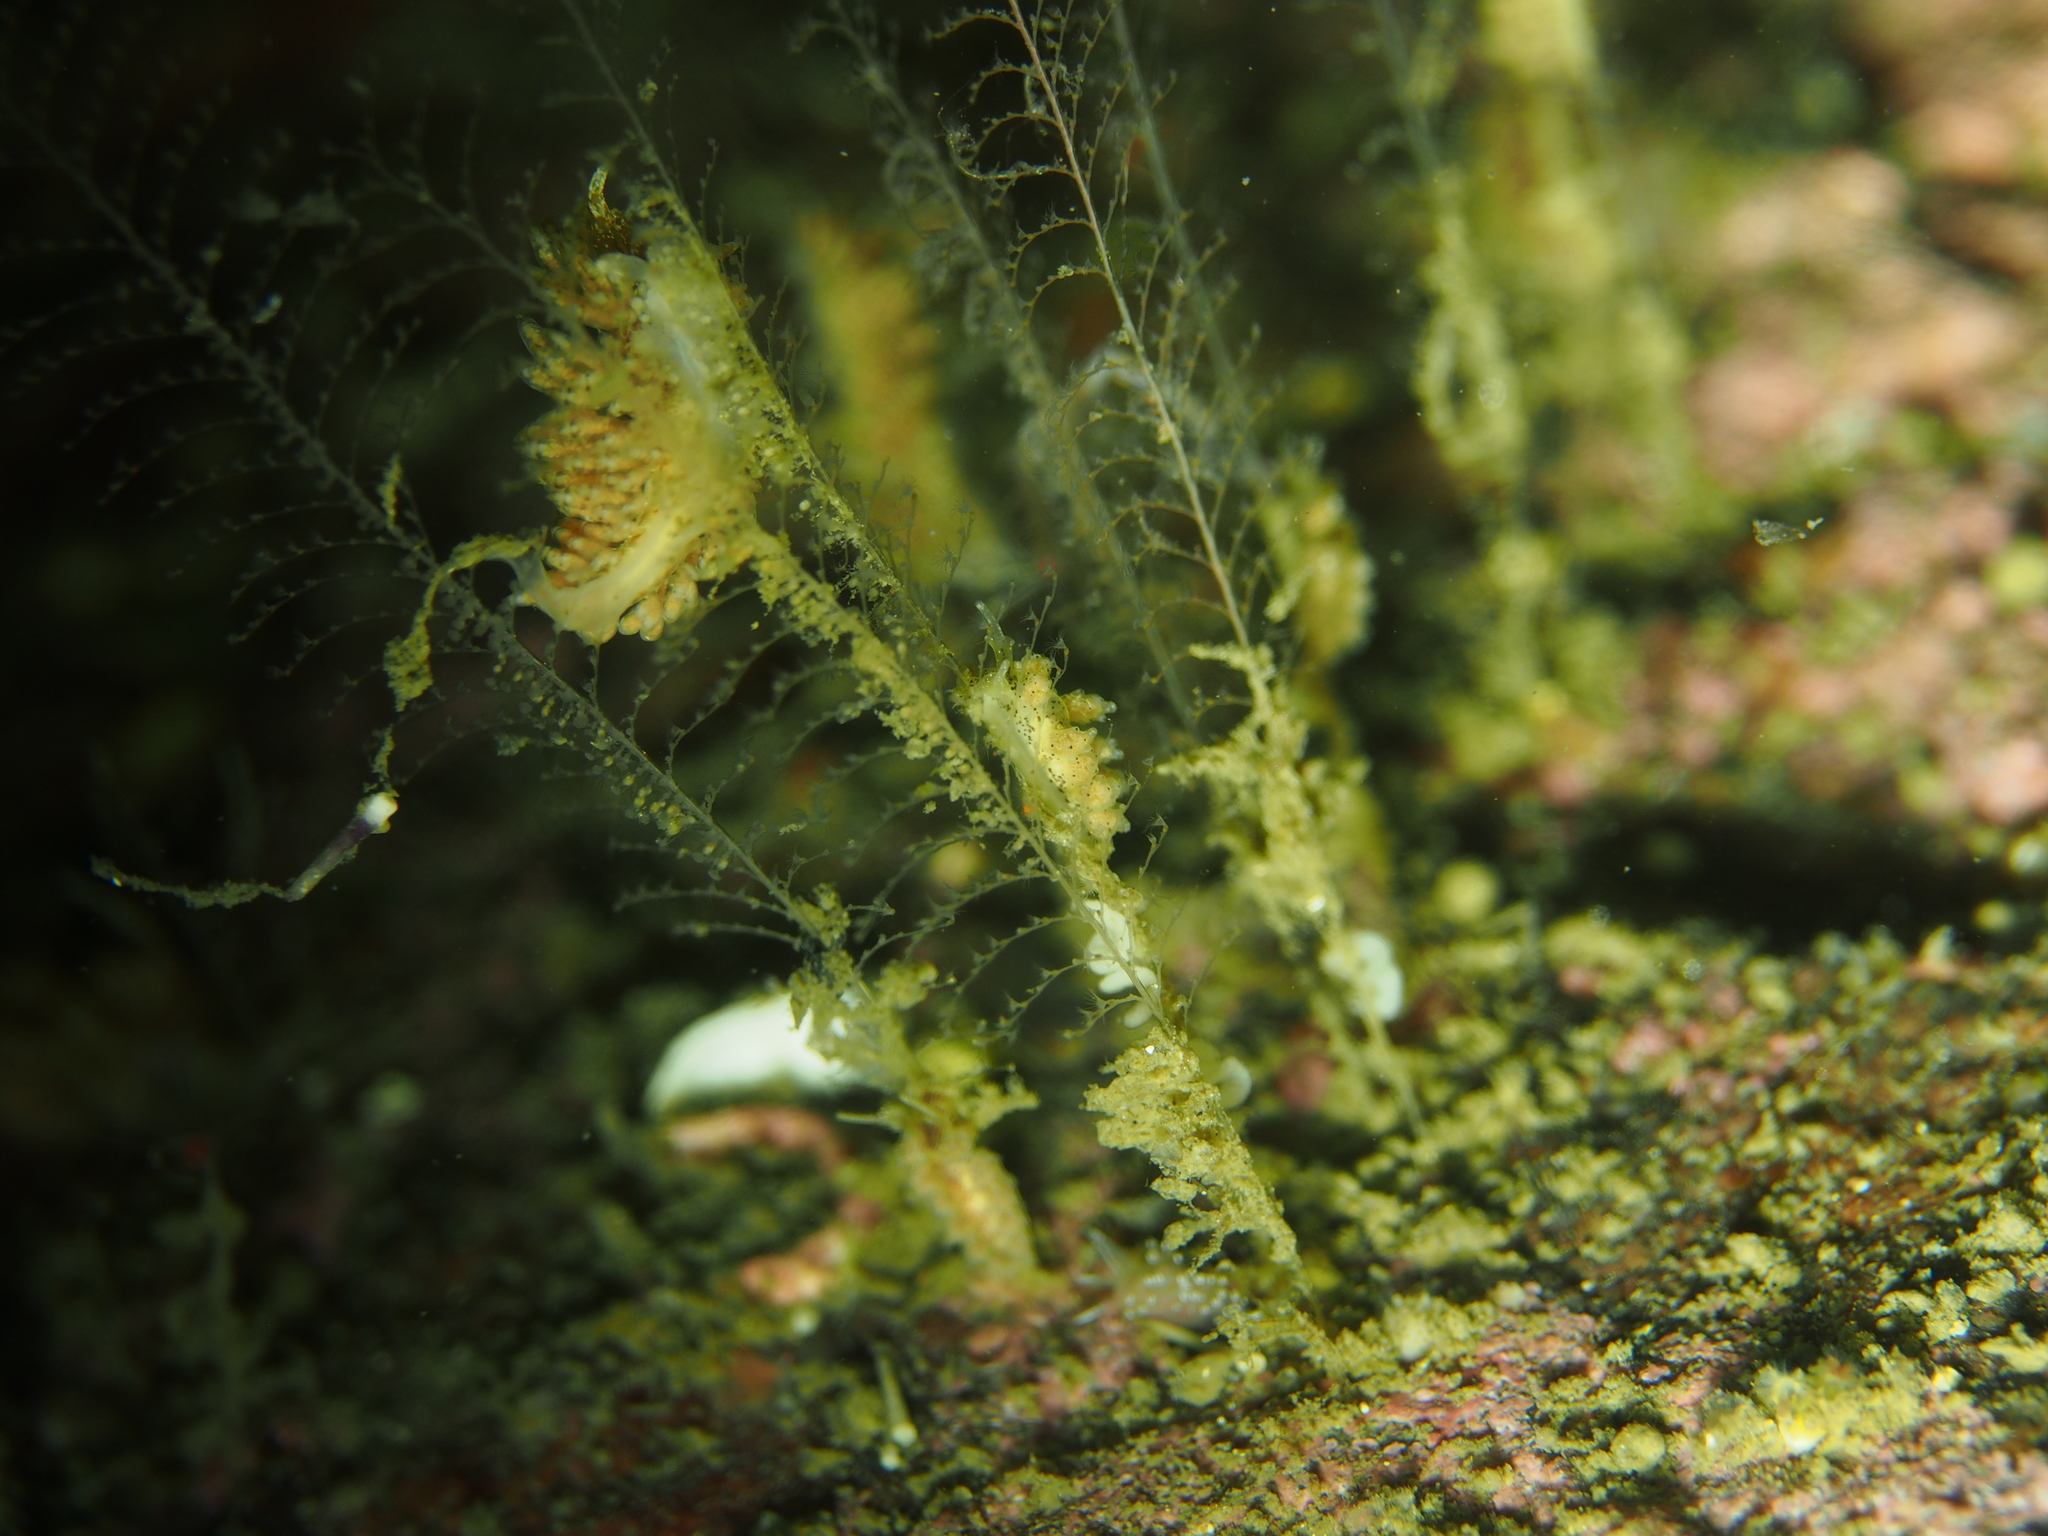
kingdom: Animalia
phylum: Mollusca
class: Gastropoda
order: Nudibranchia
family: Eubranchidae
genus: Eubranchus
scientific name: Eubranchus vittatus
